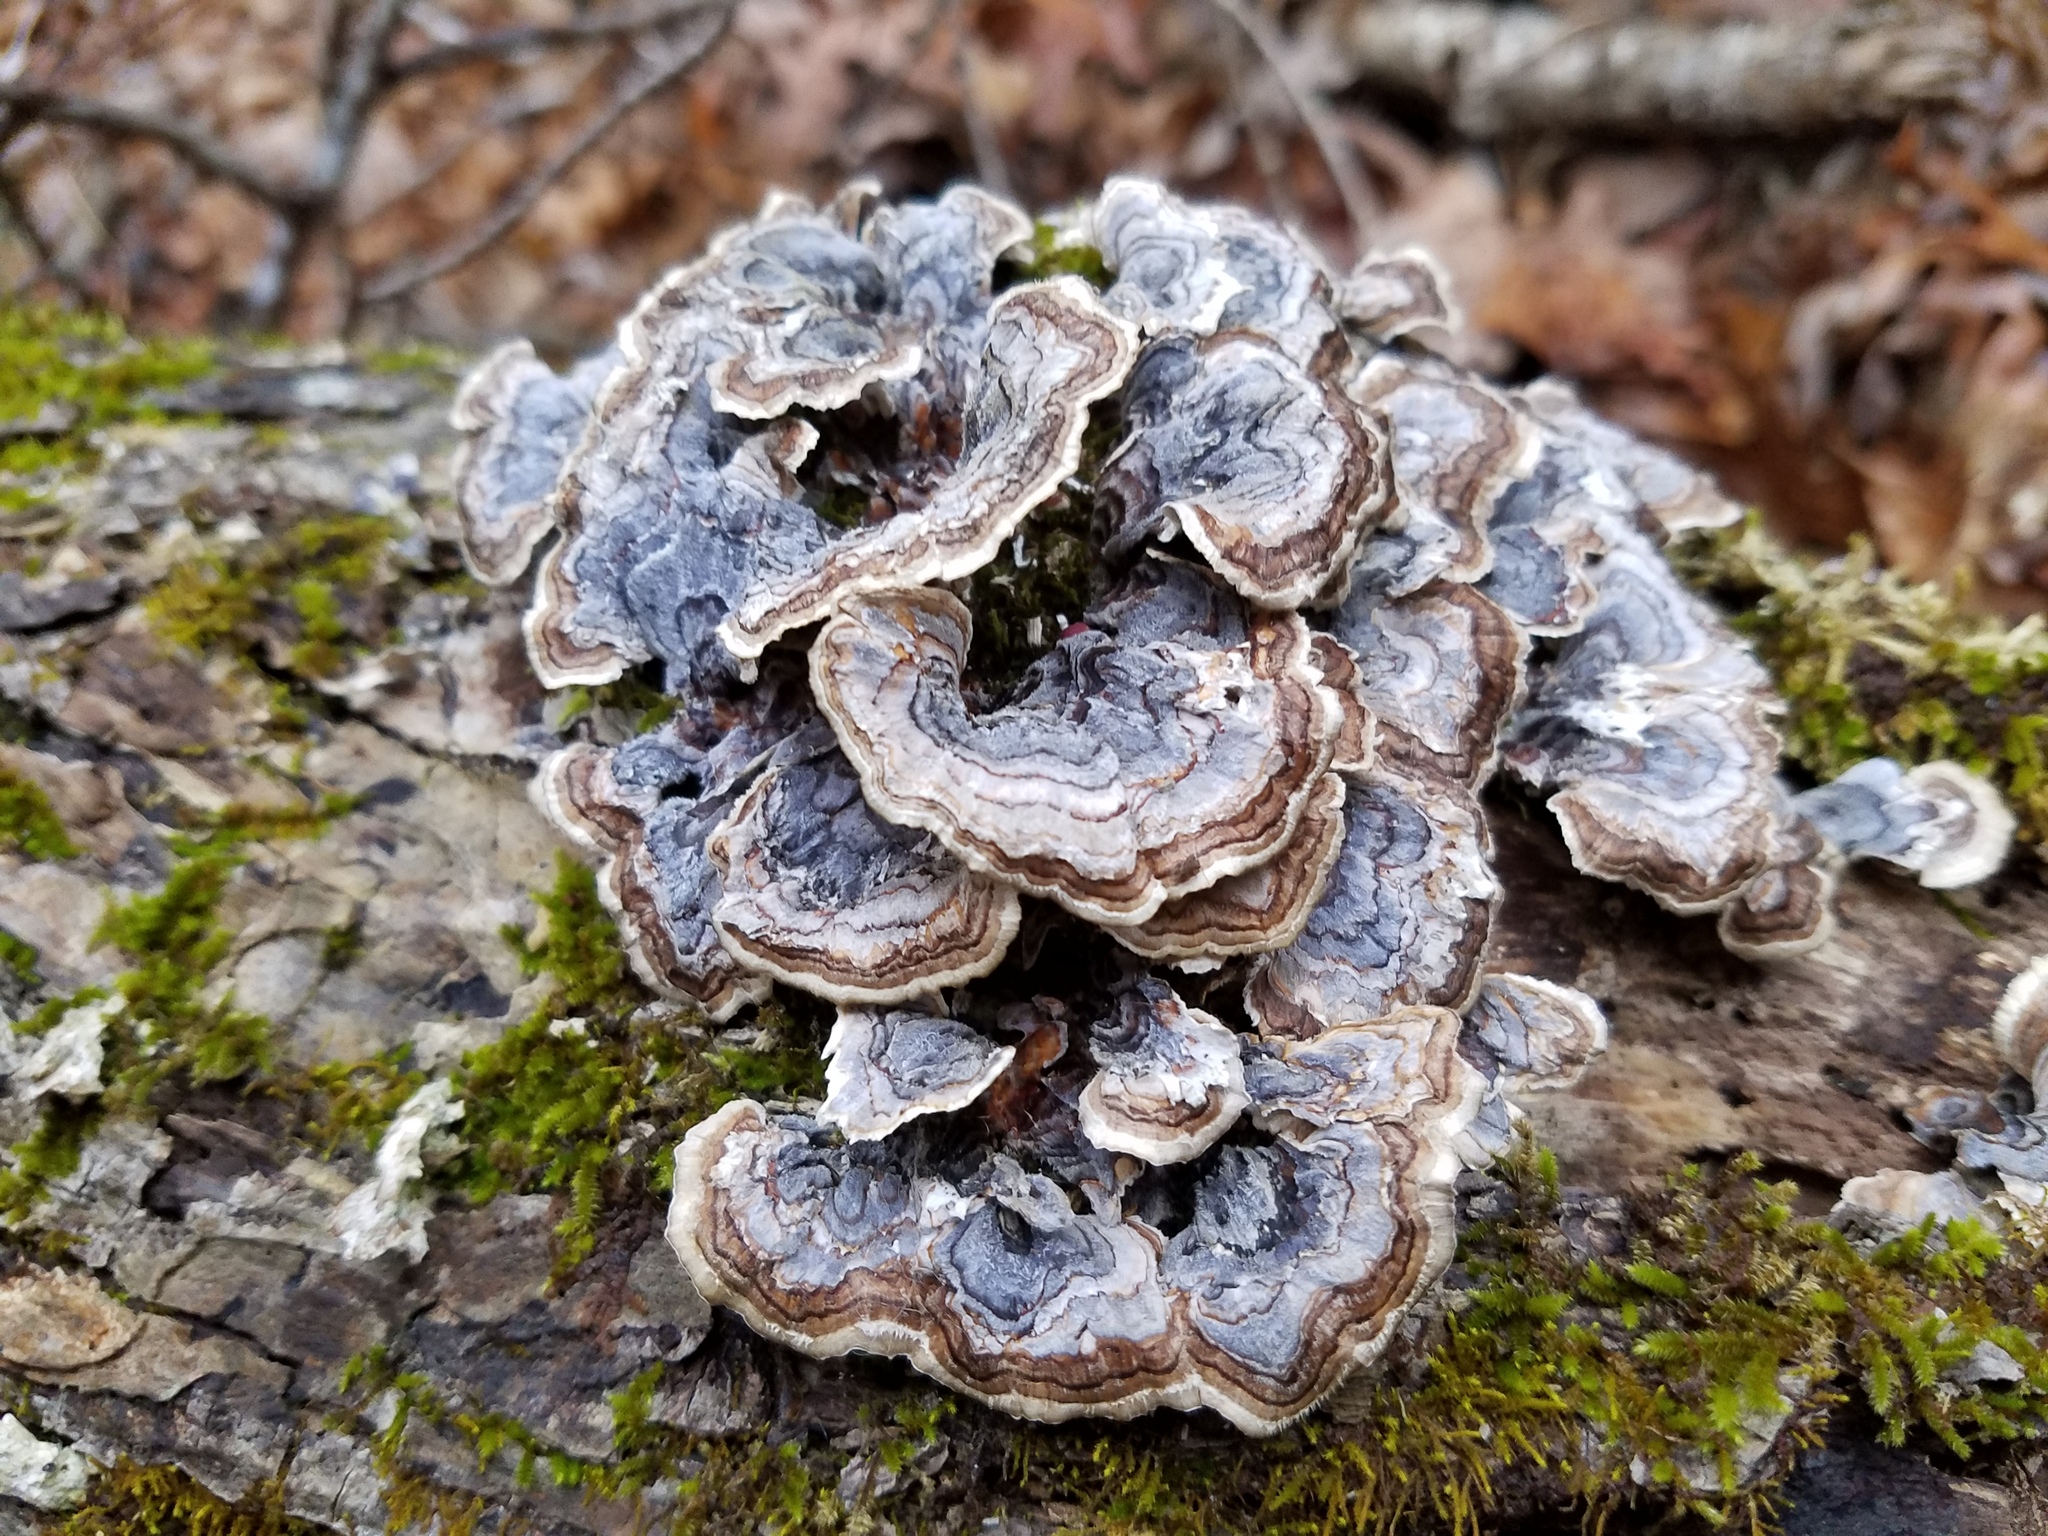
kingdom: Fungi
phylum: Basidiomycota
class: Agaricomycetes
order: Polyporales
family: Polyporaceae
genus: Trametes
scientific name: Trametes versicolor
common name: Turkeytail
